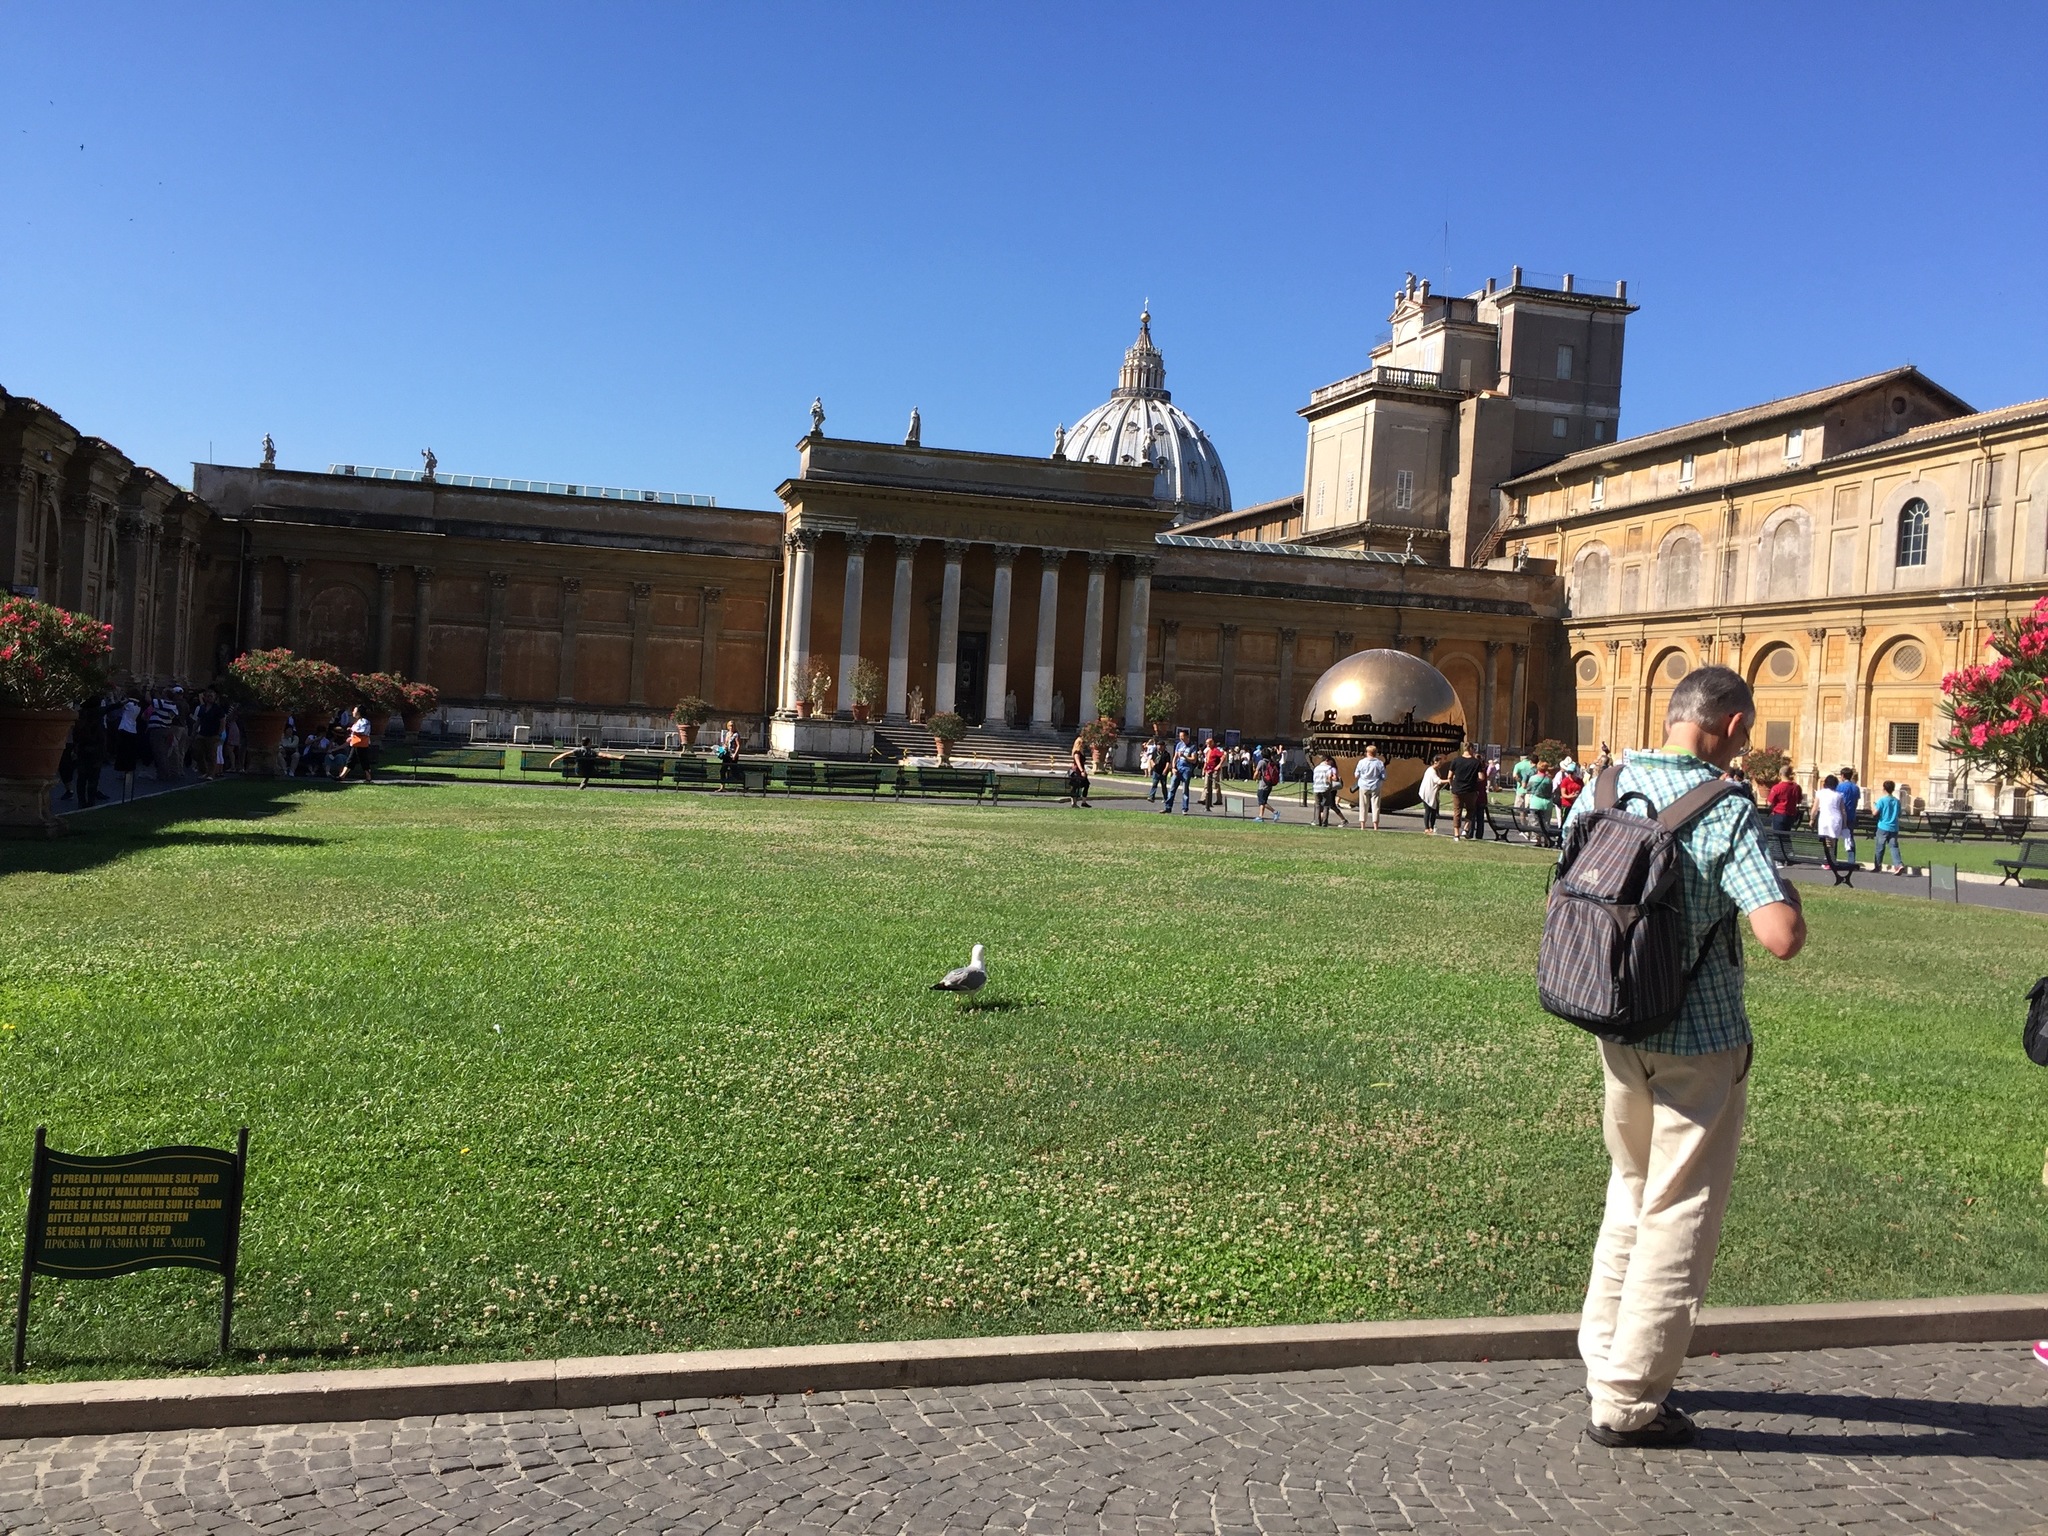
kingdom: Animalia
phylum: Chordata
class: Aves
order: Charadriiformes
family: Laridae
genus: Larus
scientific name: Larus michahellis
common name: Yellow-legged gull
